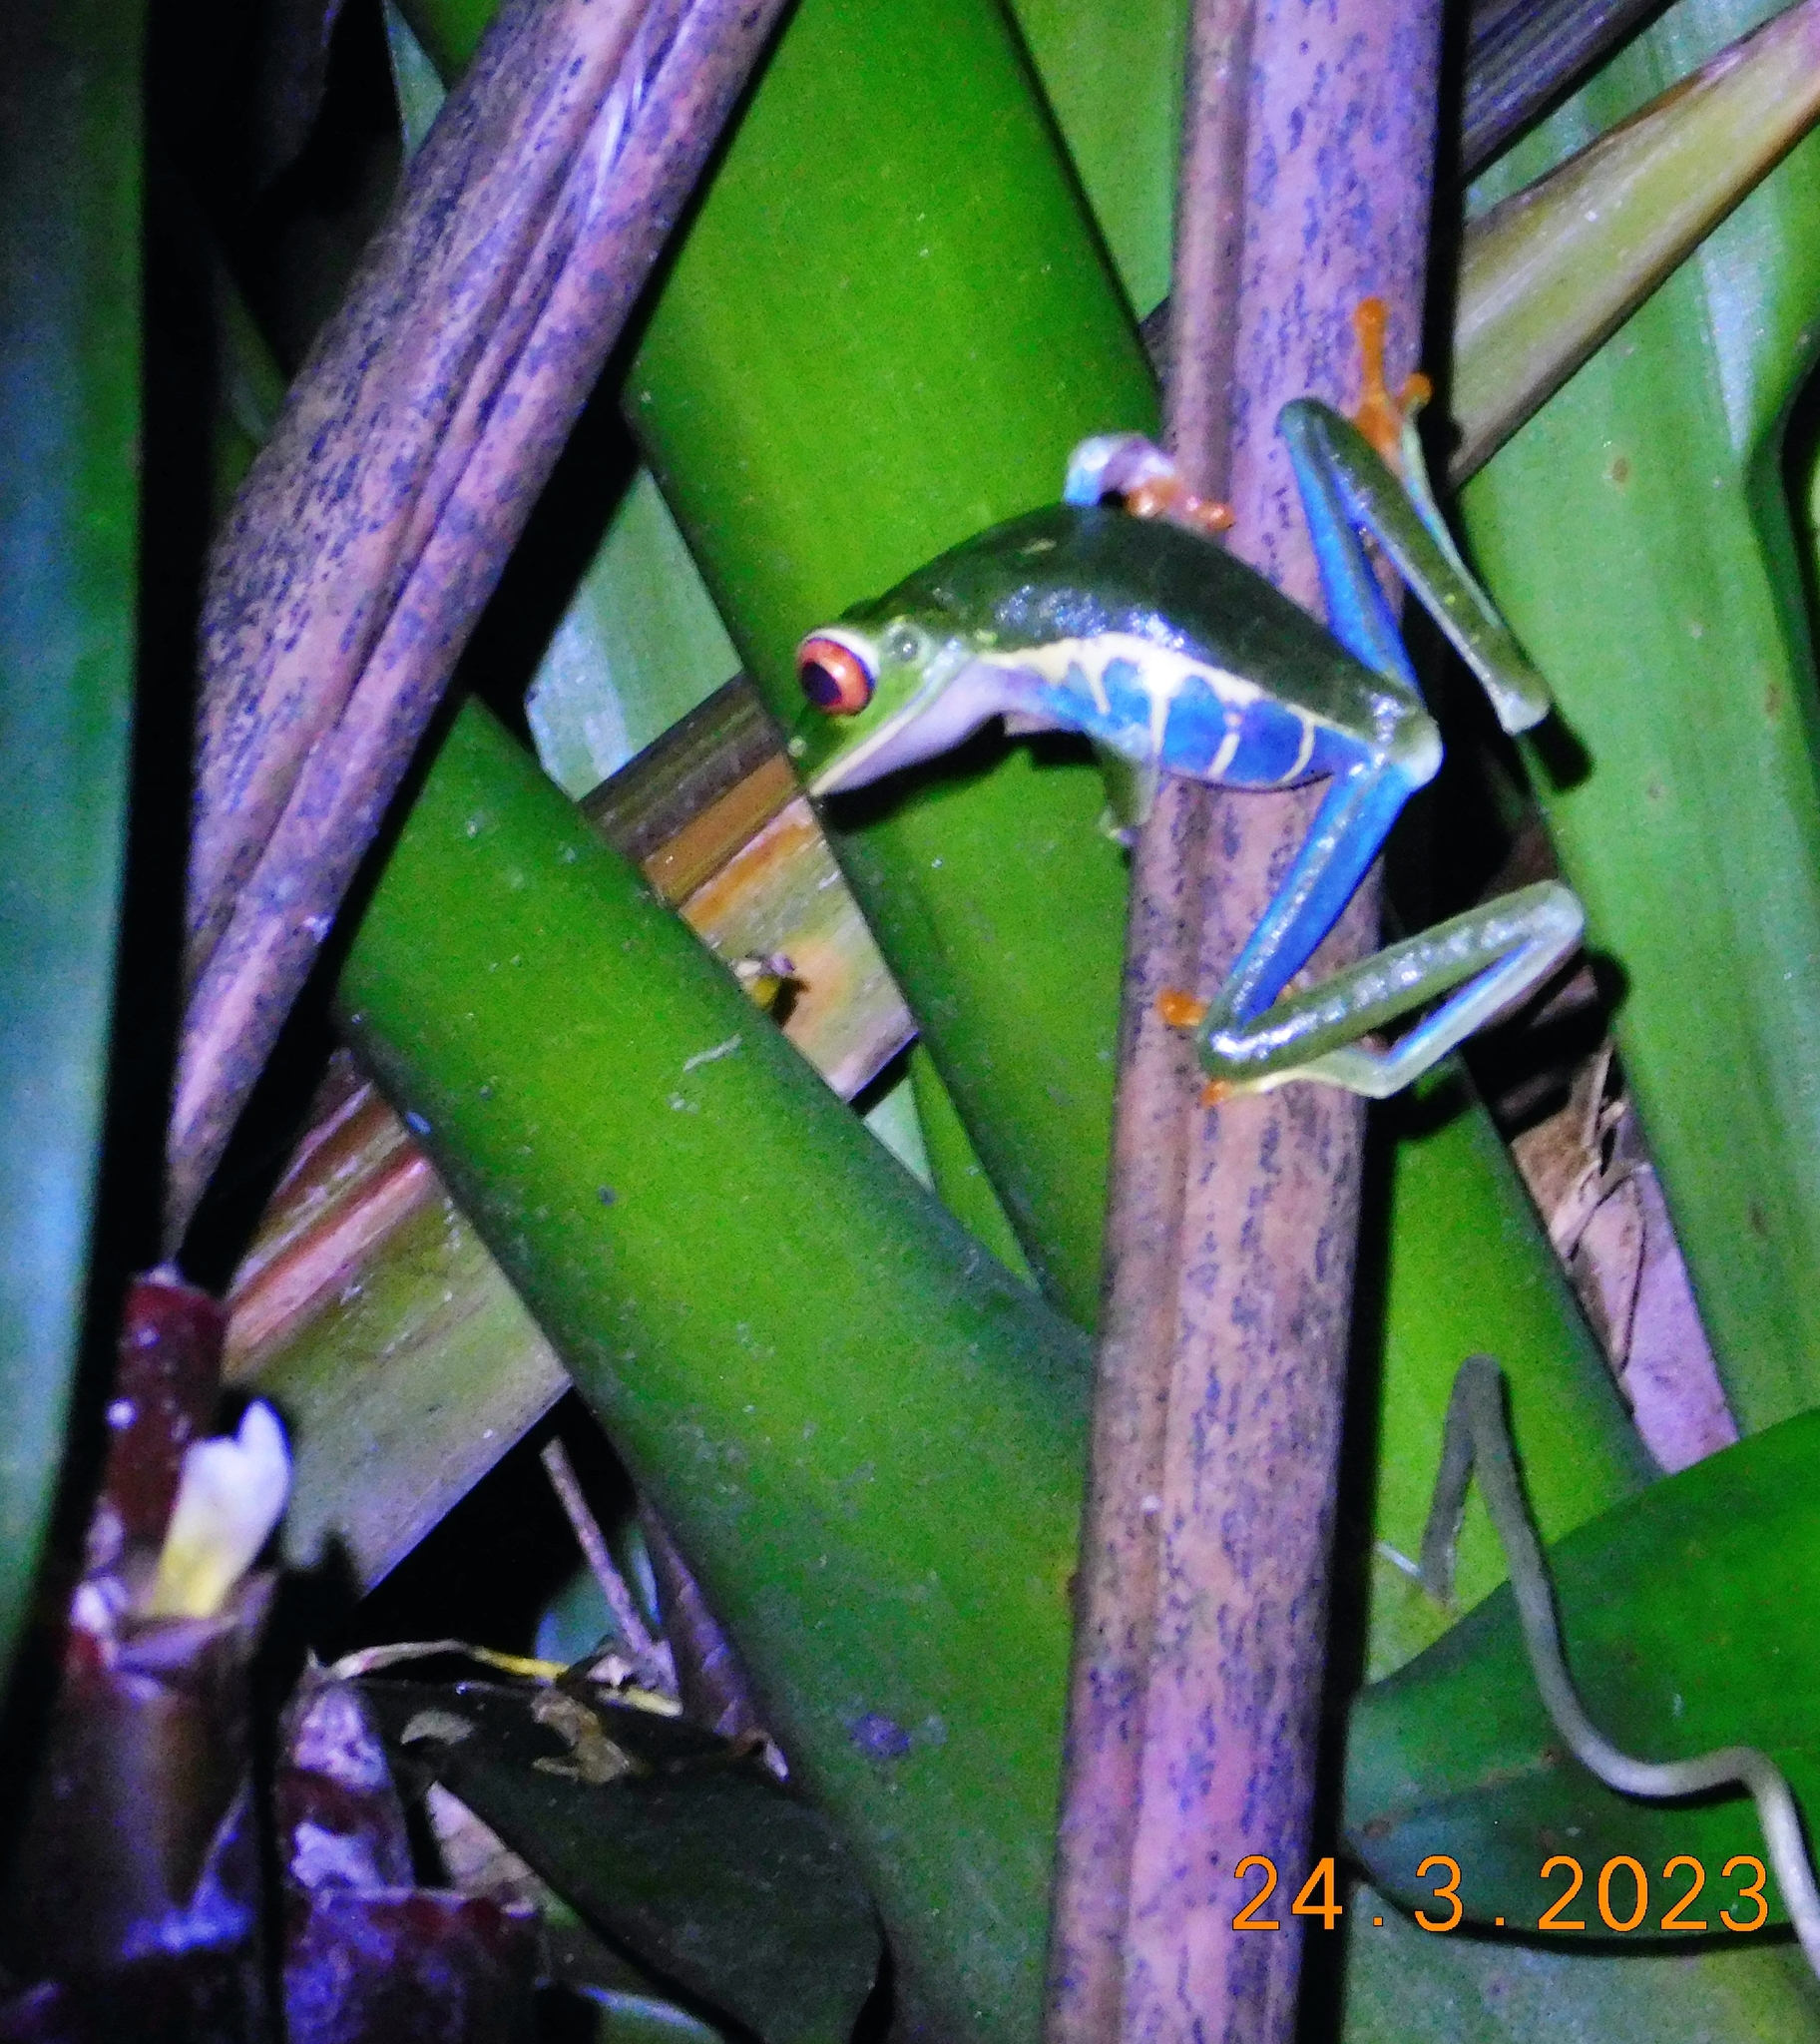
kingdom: Animalia
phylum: Chordata
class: Amphibia
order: Anura
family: Phyllomedusidae
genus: Agalychnis
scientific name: Agalychnis callidryas
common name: Red-eyed treefrog
